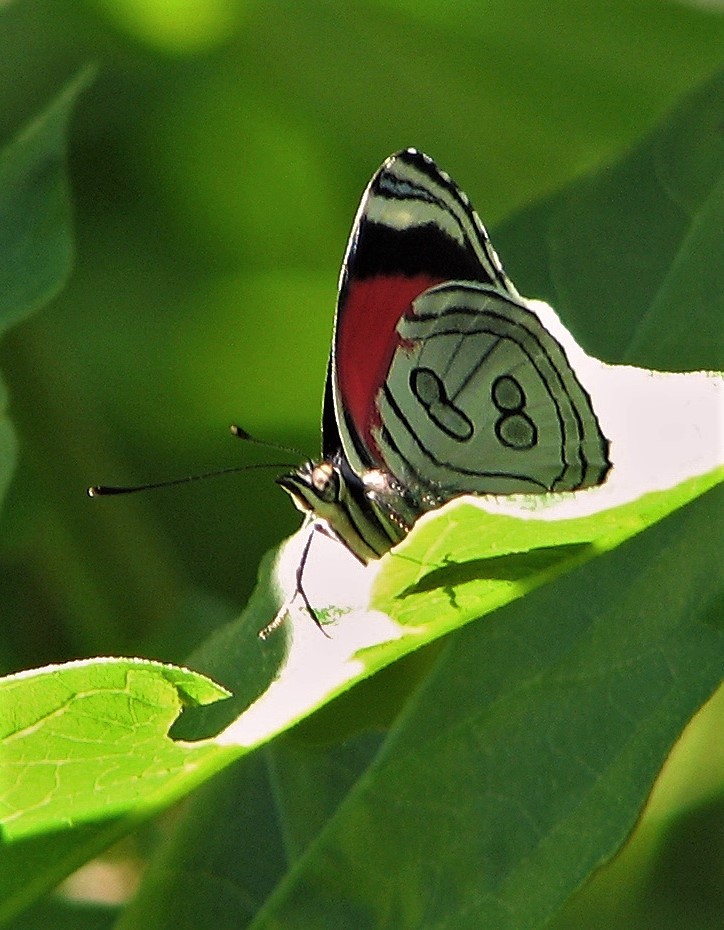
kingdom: Animalia
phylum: Arthropoda
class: Insecta
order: Lepidoptera
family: Nymphalidae
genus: Diaethria
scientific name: Diaethria candrena
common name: Number eighty
